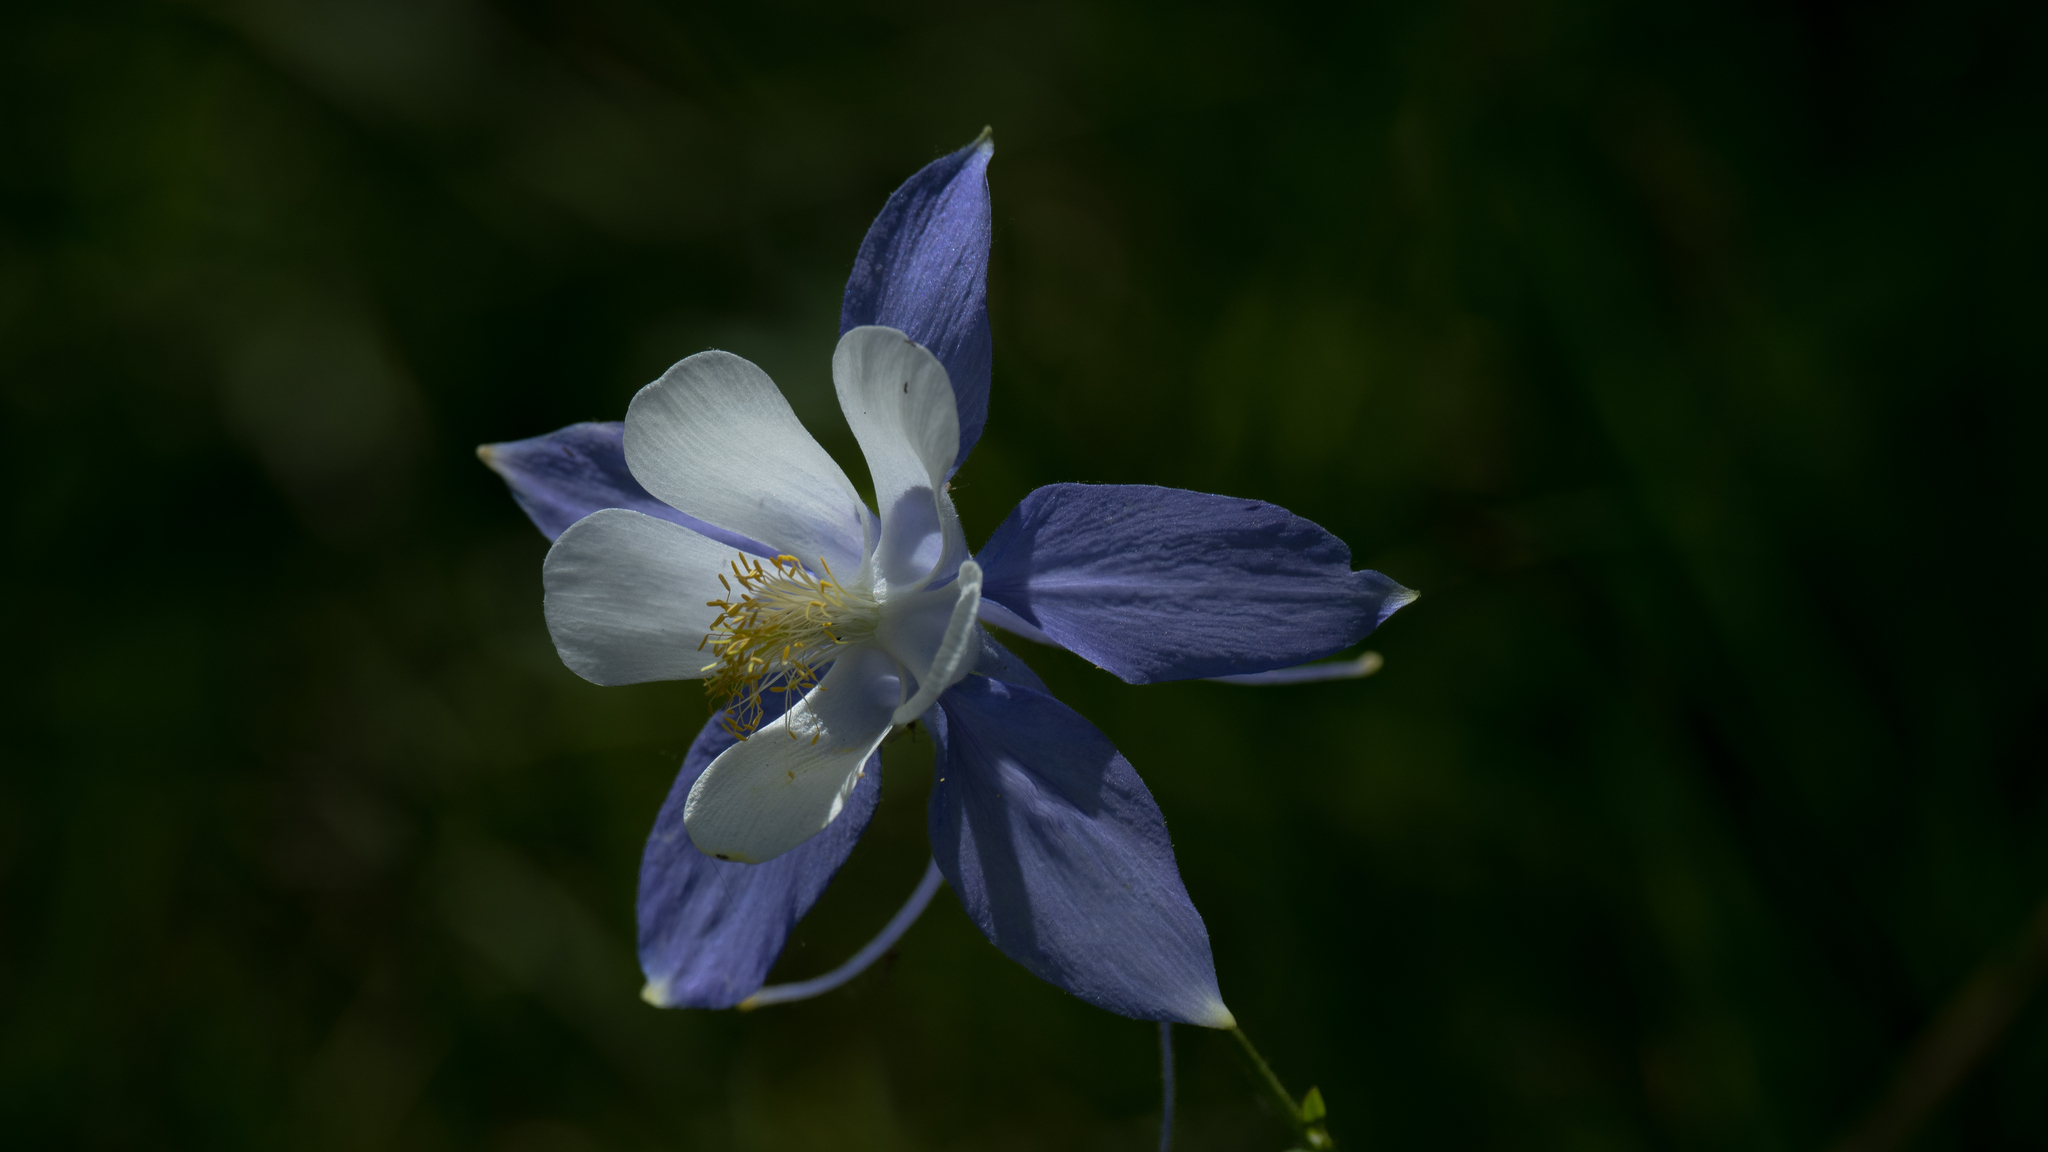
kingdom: Plantae
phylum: Tracheophyta
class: Magnoliopsida
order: Ranunculales
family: Ranunculaceae
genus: Aquilegia
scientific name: Aquilegia coerulea
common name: Rocky mountain columbine
